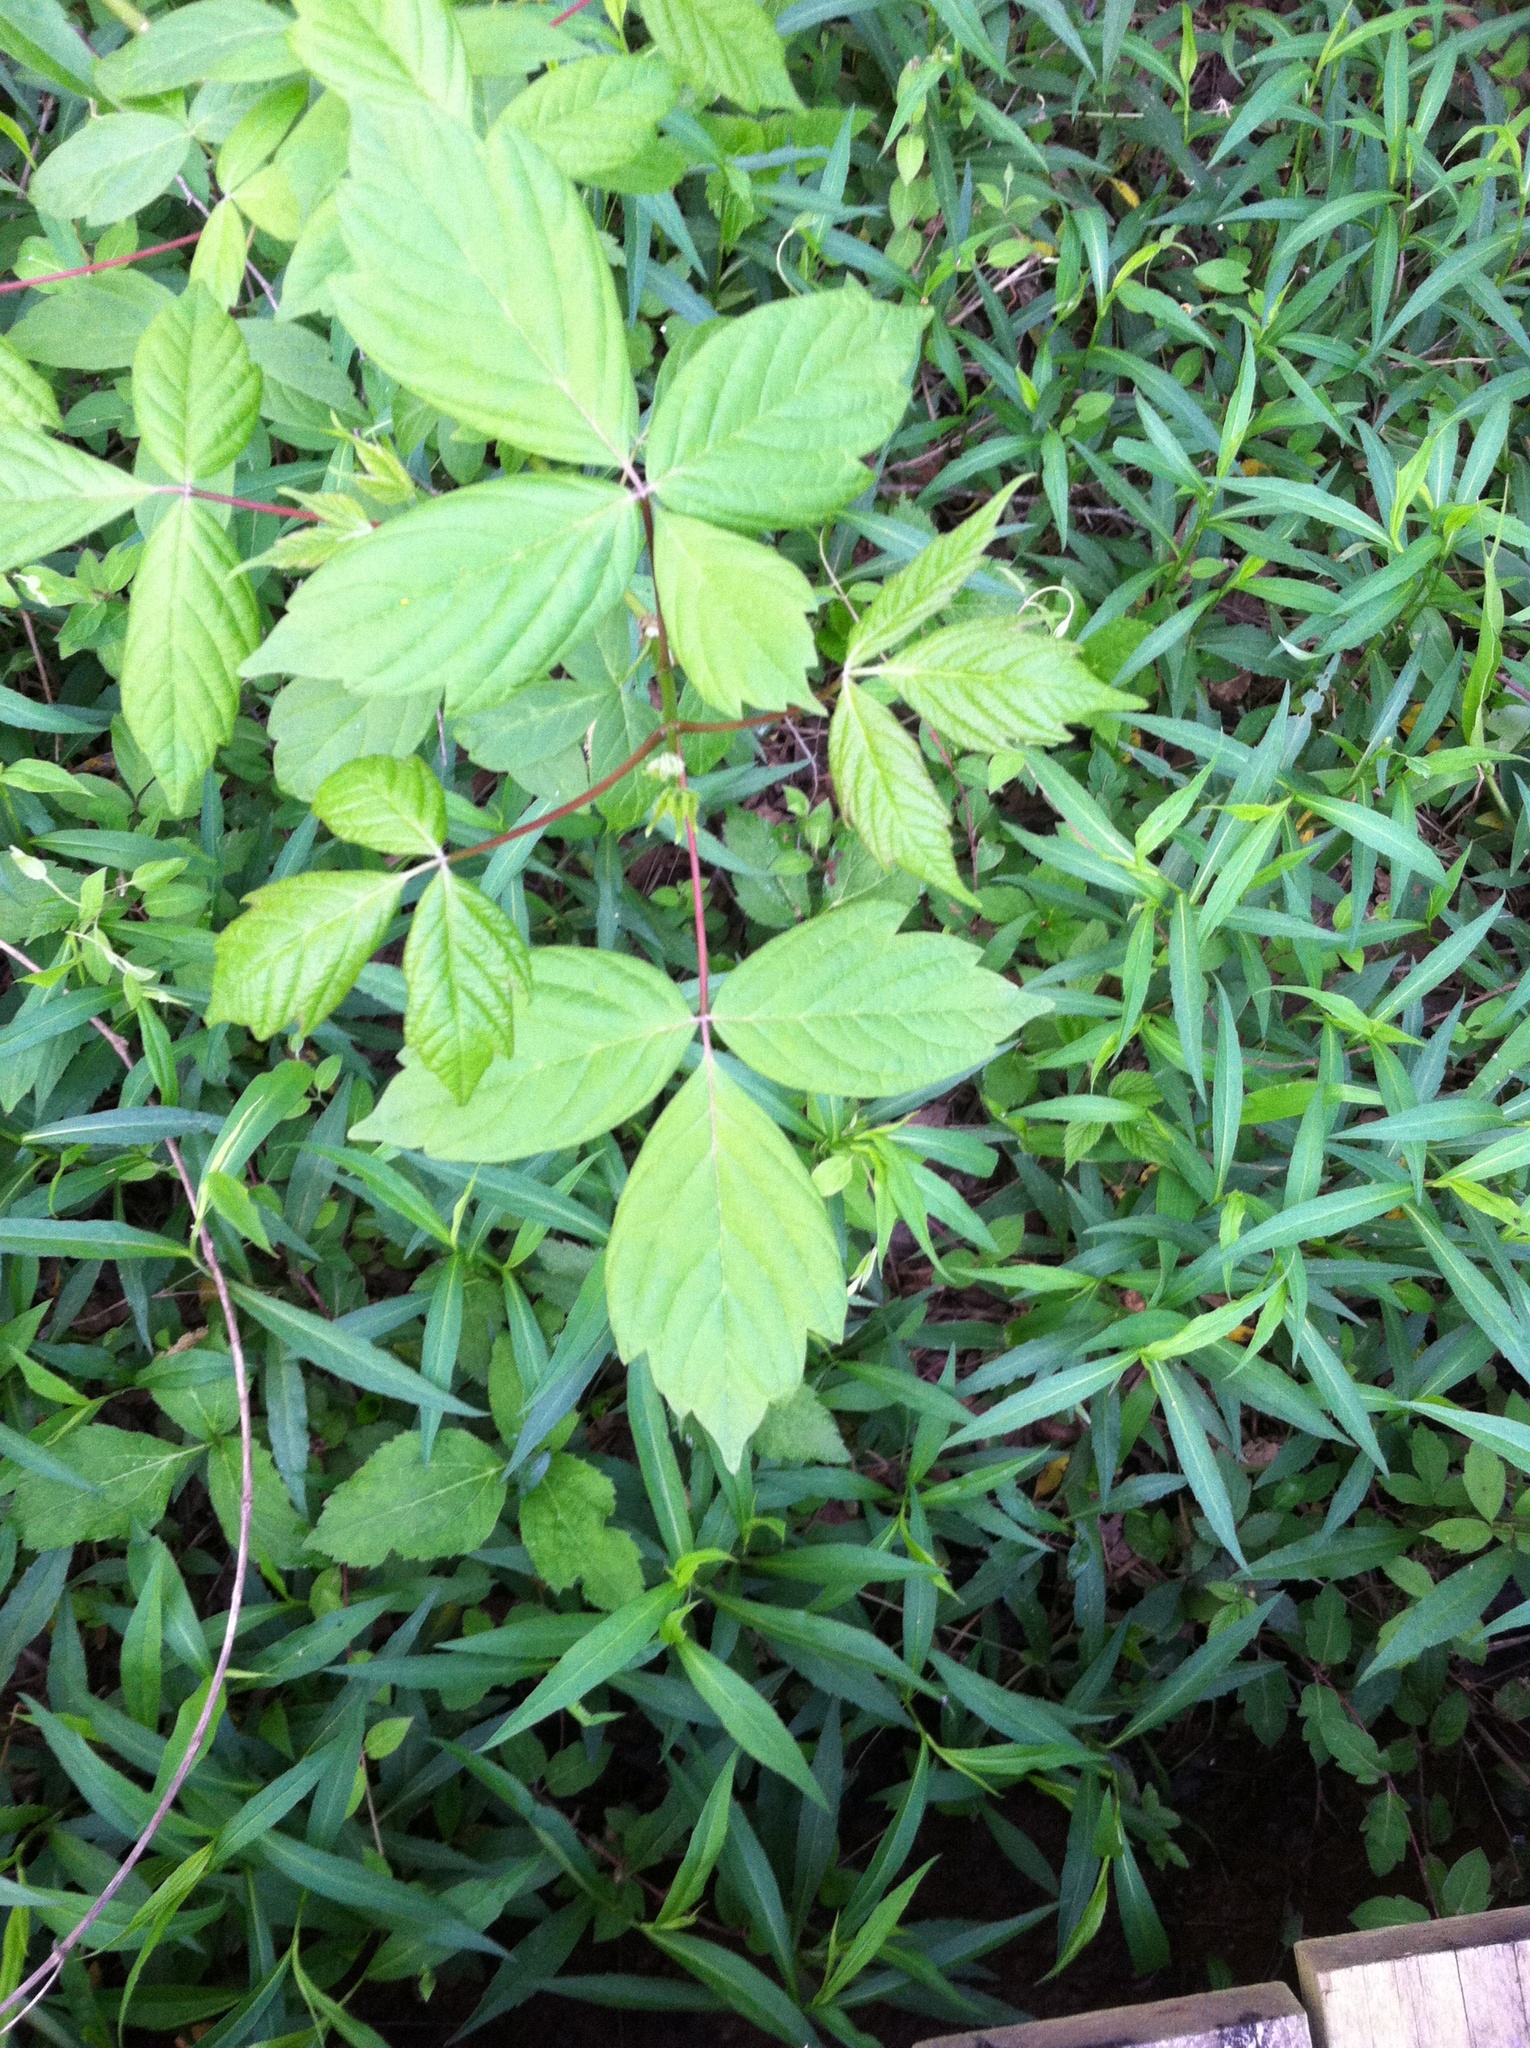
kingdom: Plantae
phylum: Tracheophyta
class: Magnoliopsida
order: Sapindales
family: Sapindaceae
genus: Acer
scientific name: Acer negundo
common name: Ashleaf maple
